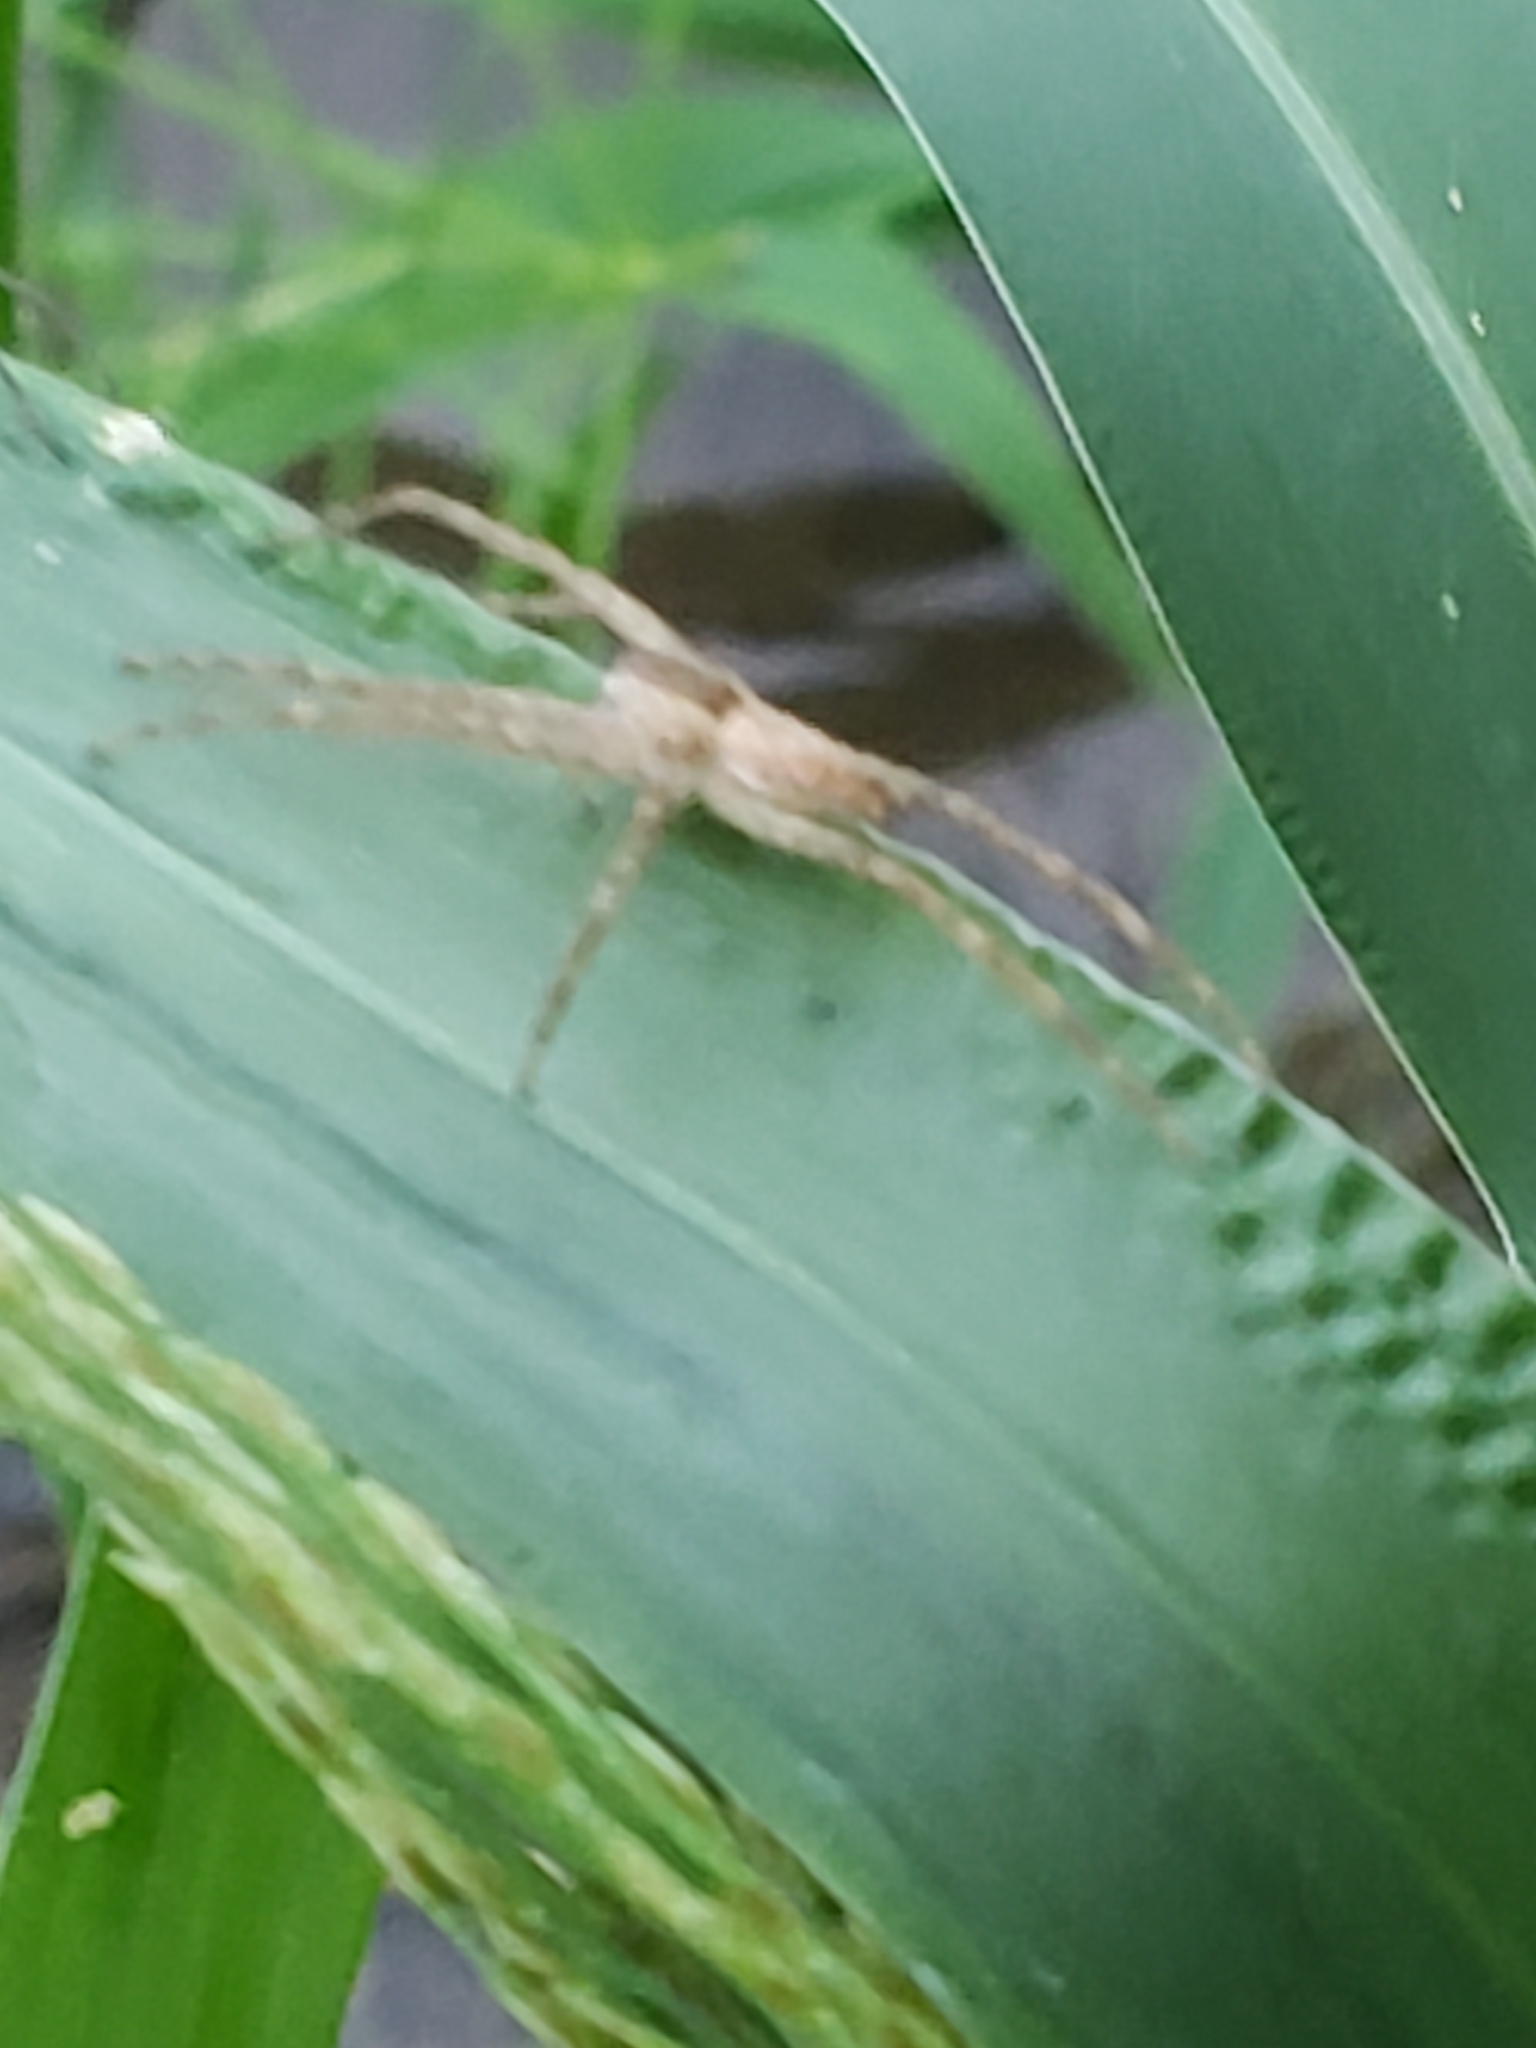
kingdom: Animalia
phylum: Arthropoda
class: Arachnida
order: Araneae
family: Pisauridae
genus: Pisaurina
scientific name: Pisaurina mira
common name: American nursery web spider
